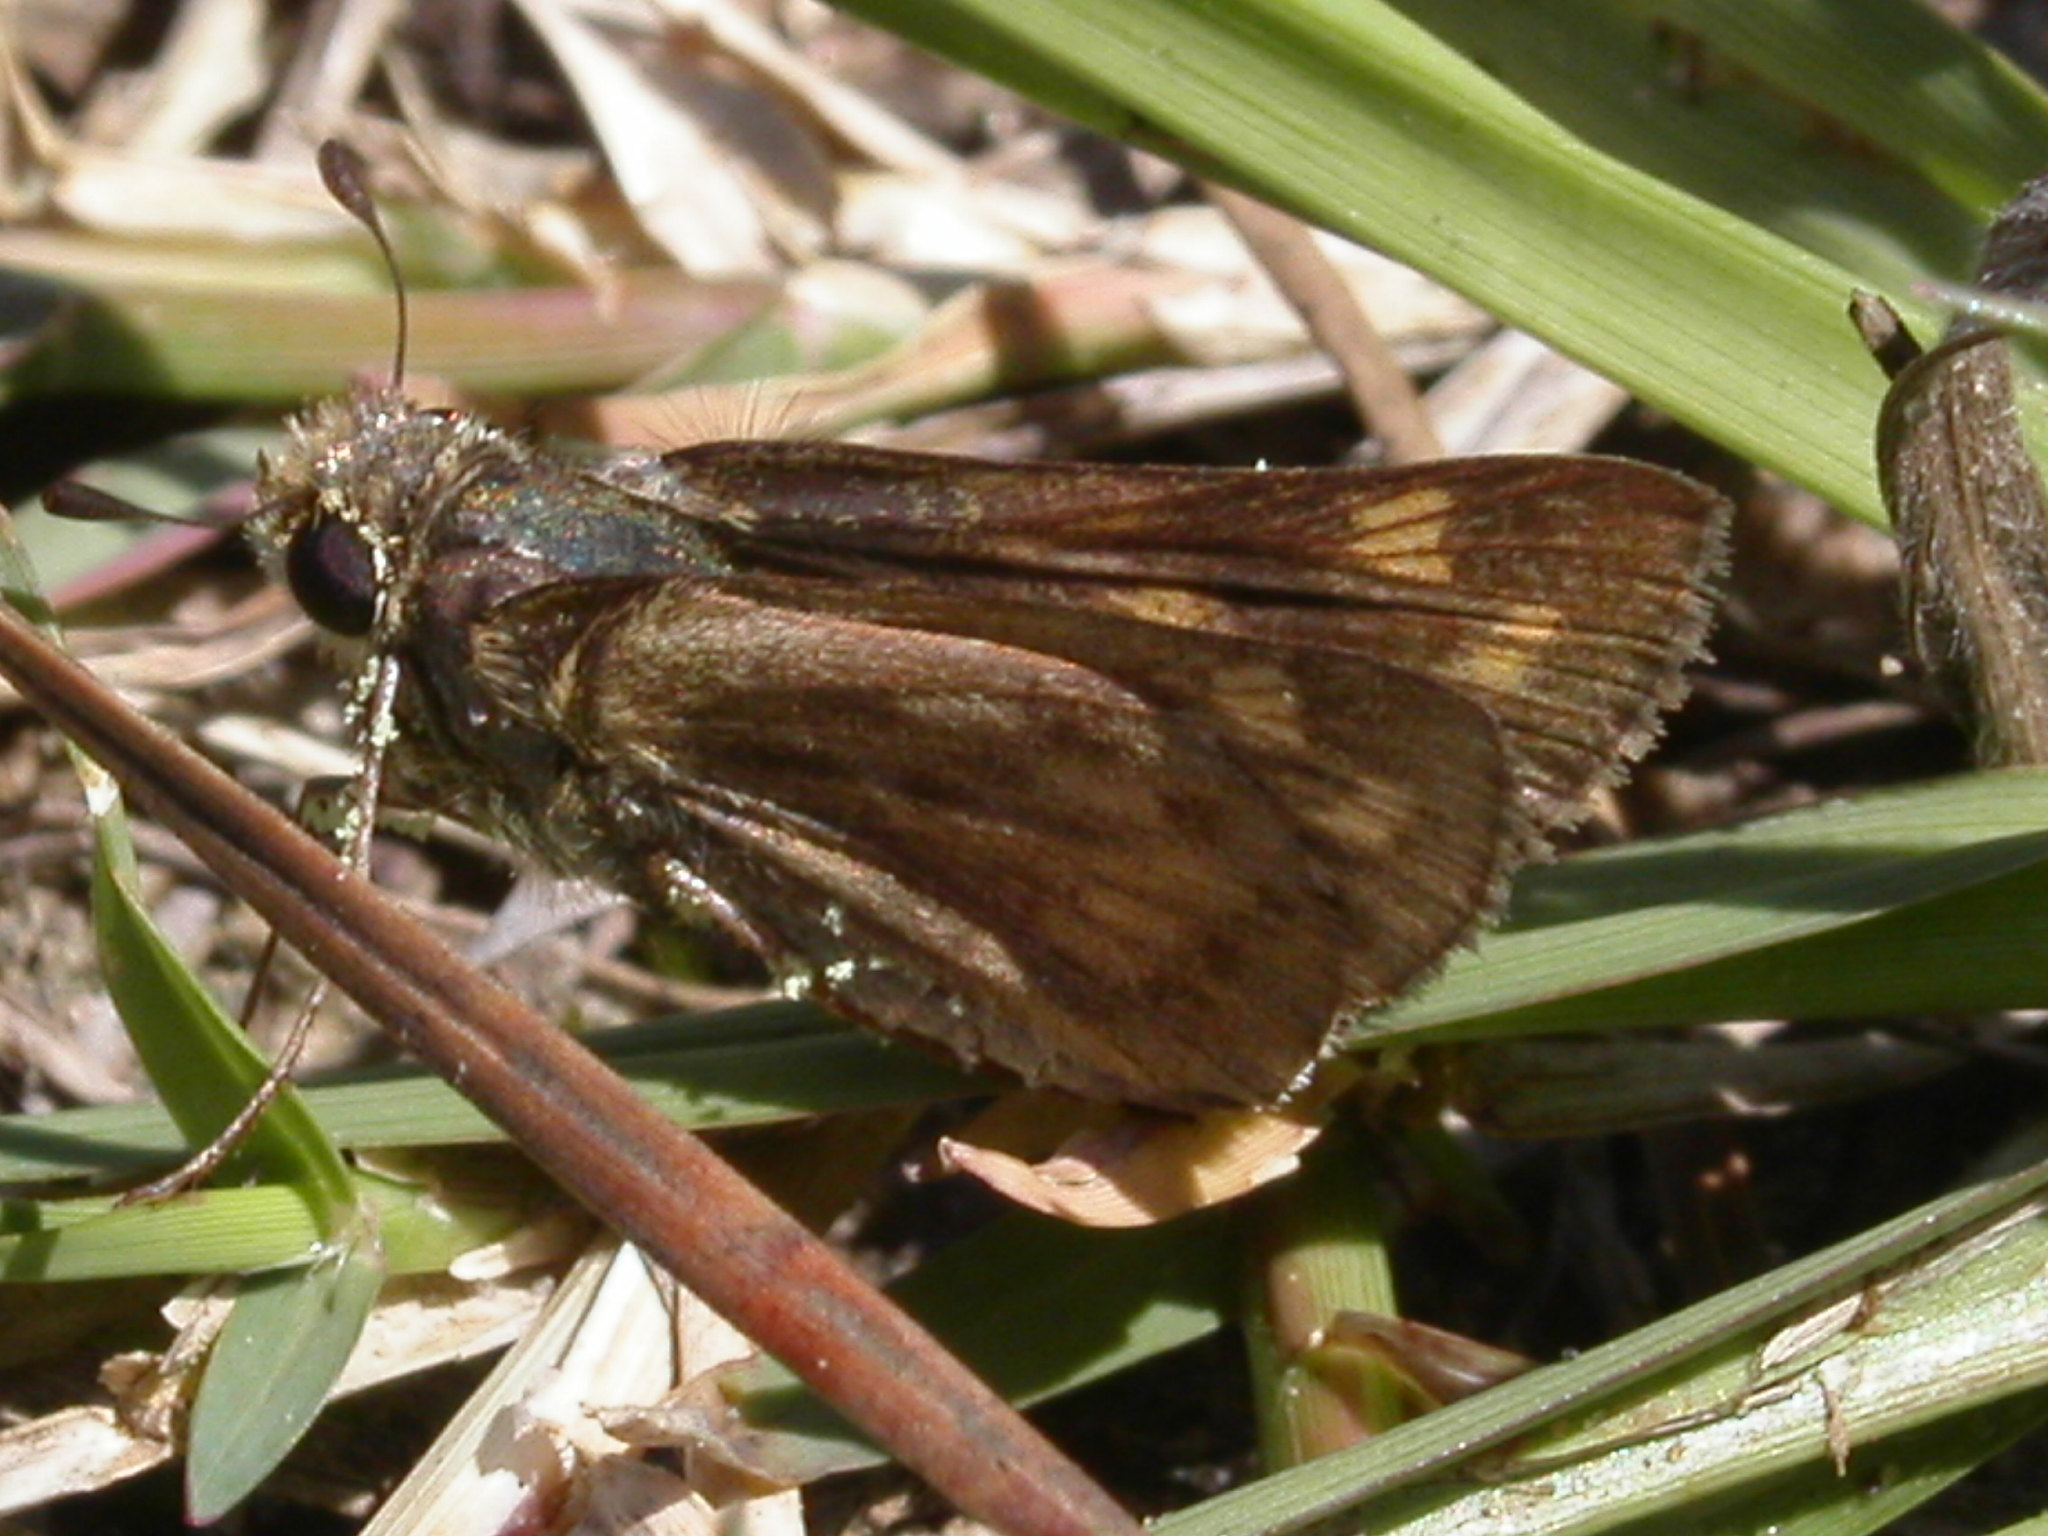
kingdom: Animalia
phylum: Arthropoda
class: Insecta
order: Lepidoptera
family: Hesperiidae
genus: Hylephila
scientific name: Hylephila phyleus
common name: Fiery skipper
